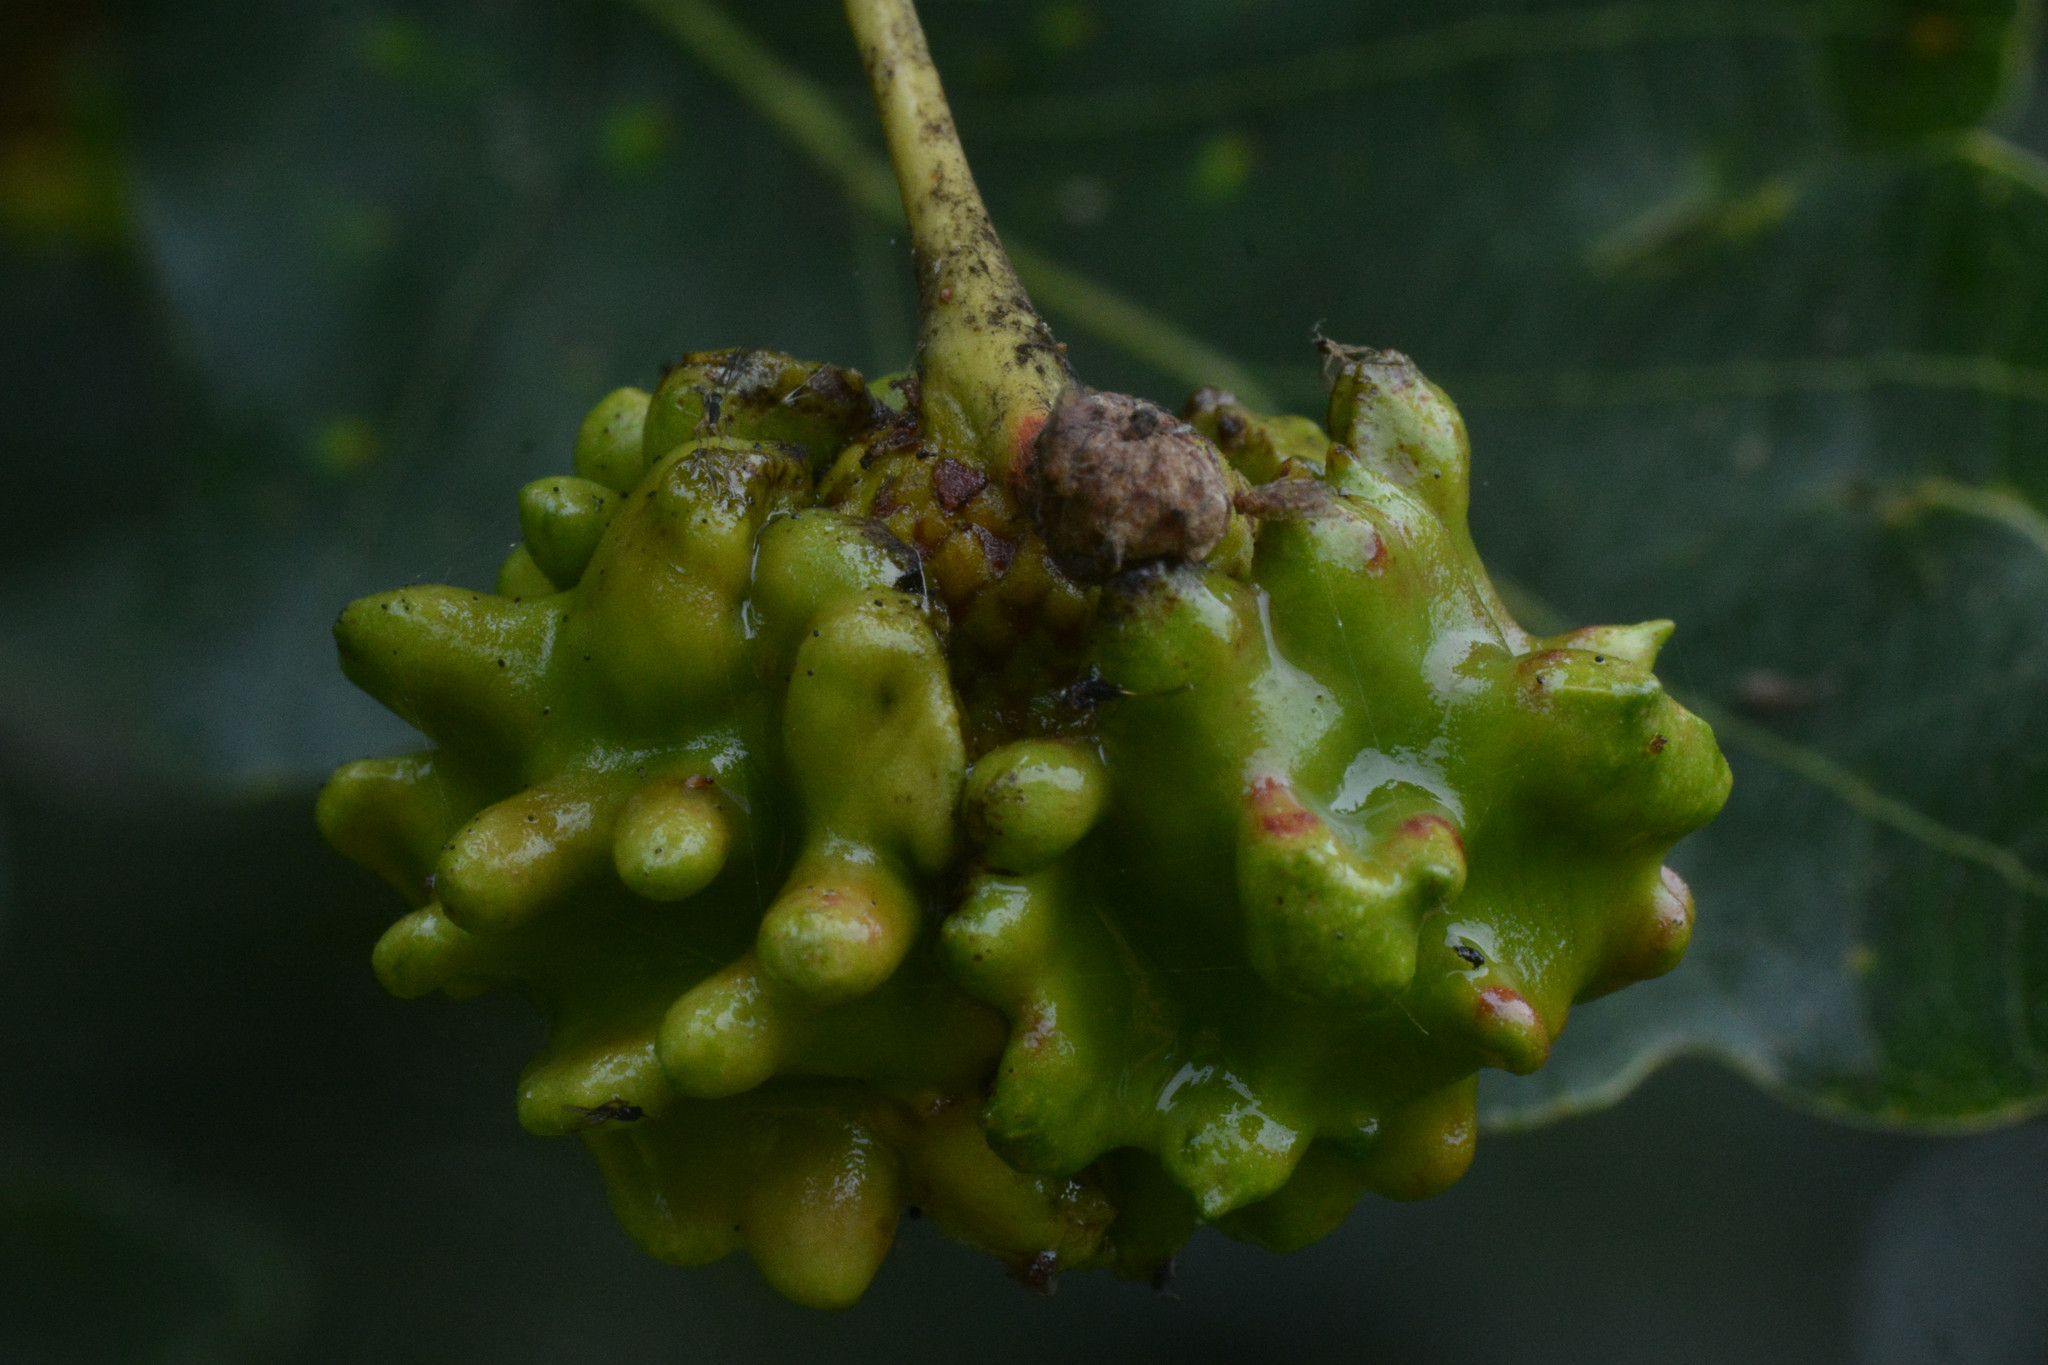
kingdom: Animalia
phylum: Arthropoda
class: Insecta
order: Hymenoptera
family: Cynipidae
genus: Andricus
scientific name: Andricus quercuscalicis
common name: Knopper gall
